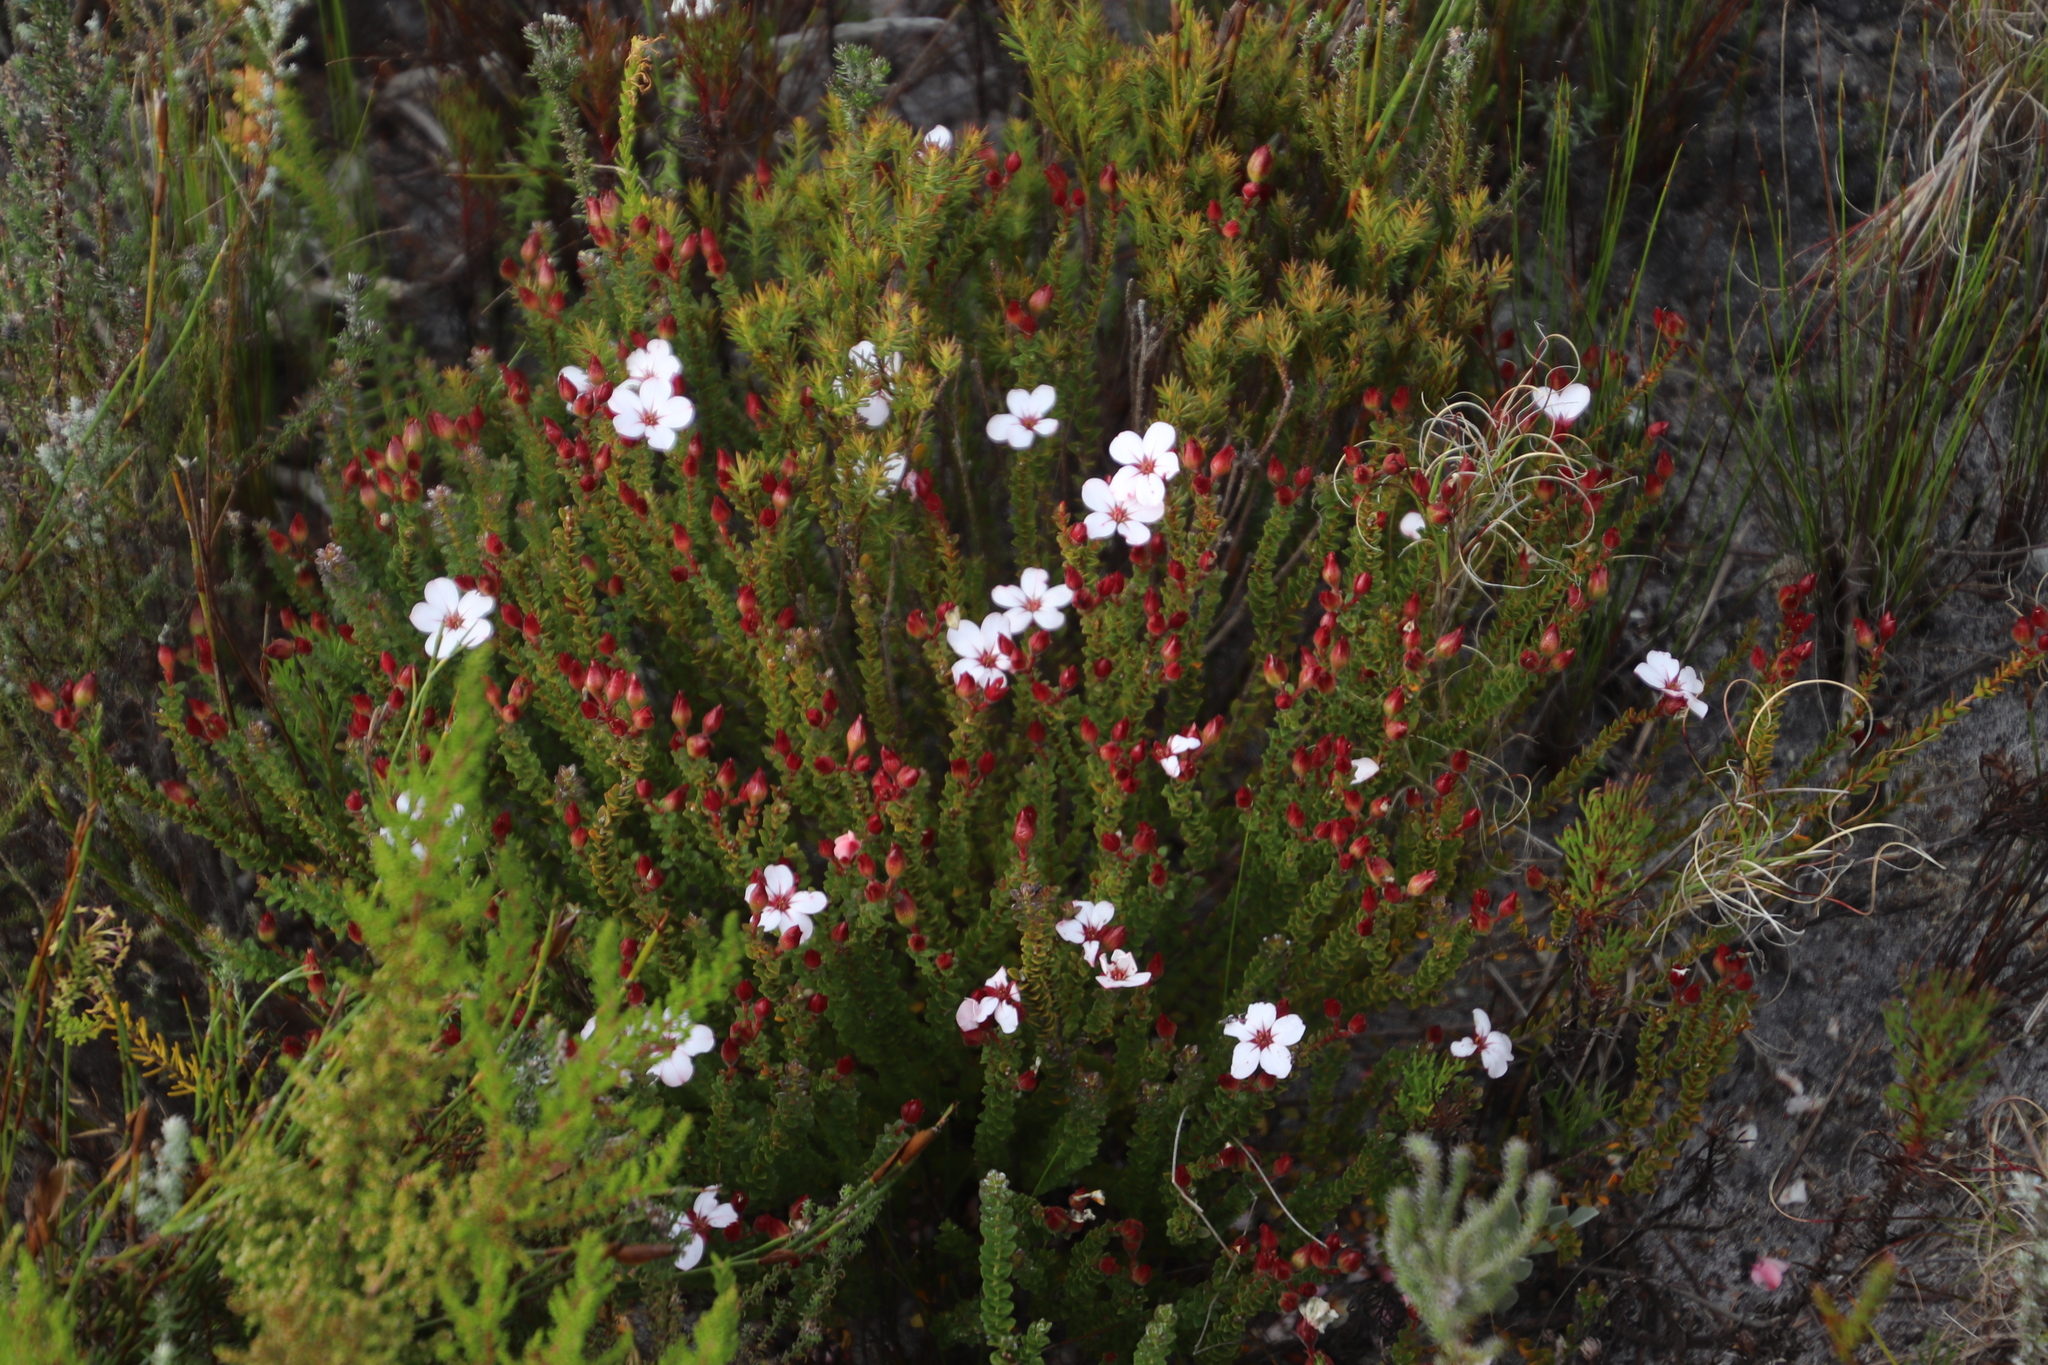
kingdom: Plantae
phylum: Tracheophyta
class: Magnoliopsida
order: Sapindales
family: Rutaceae
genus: Adenandra
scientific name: Adenandra villosa
